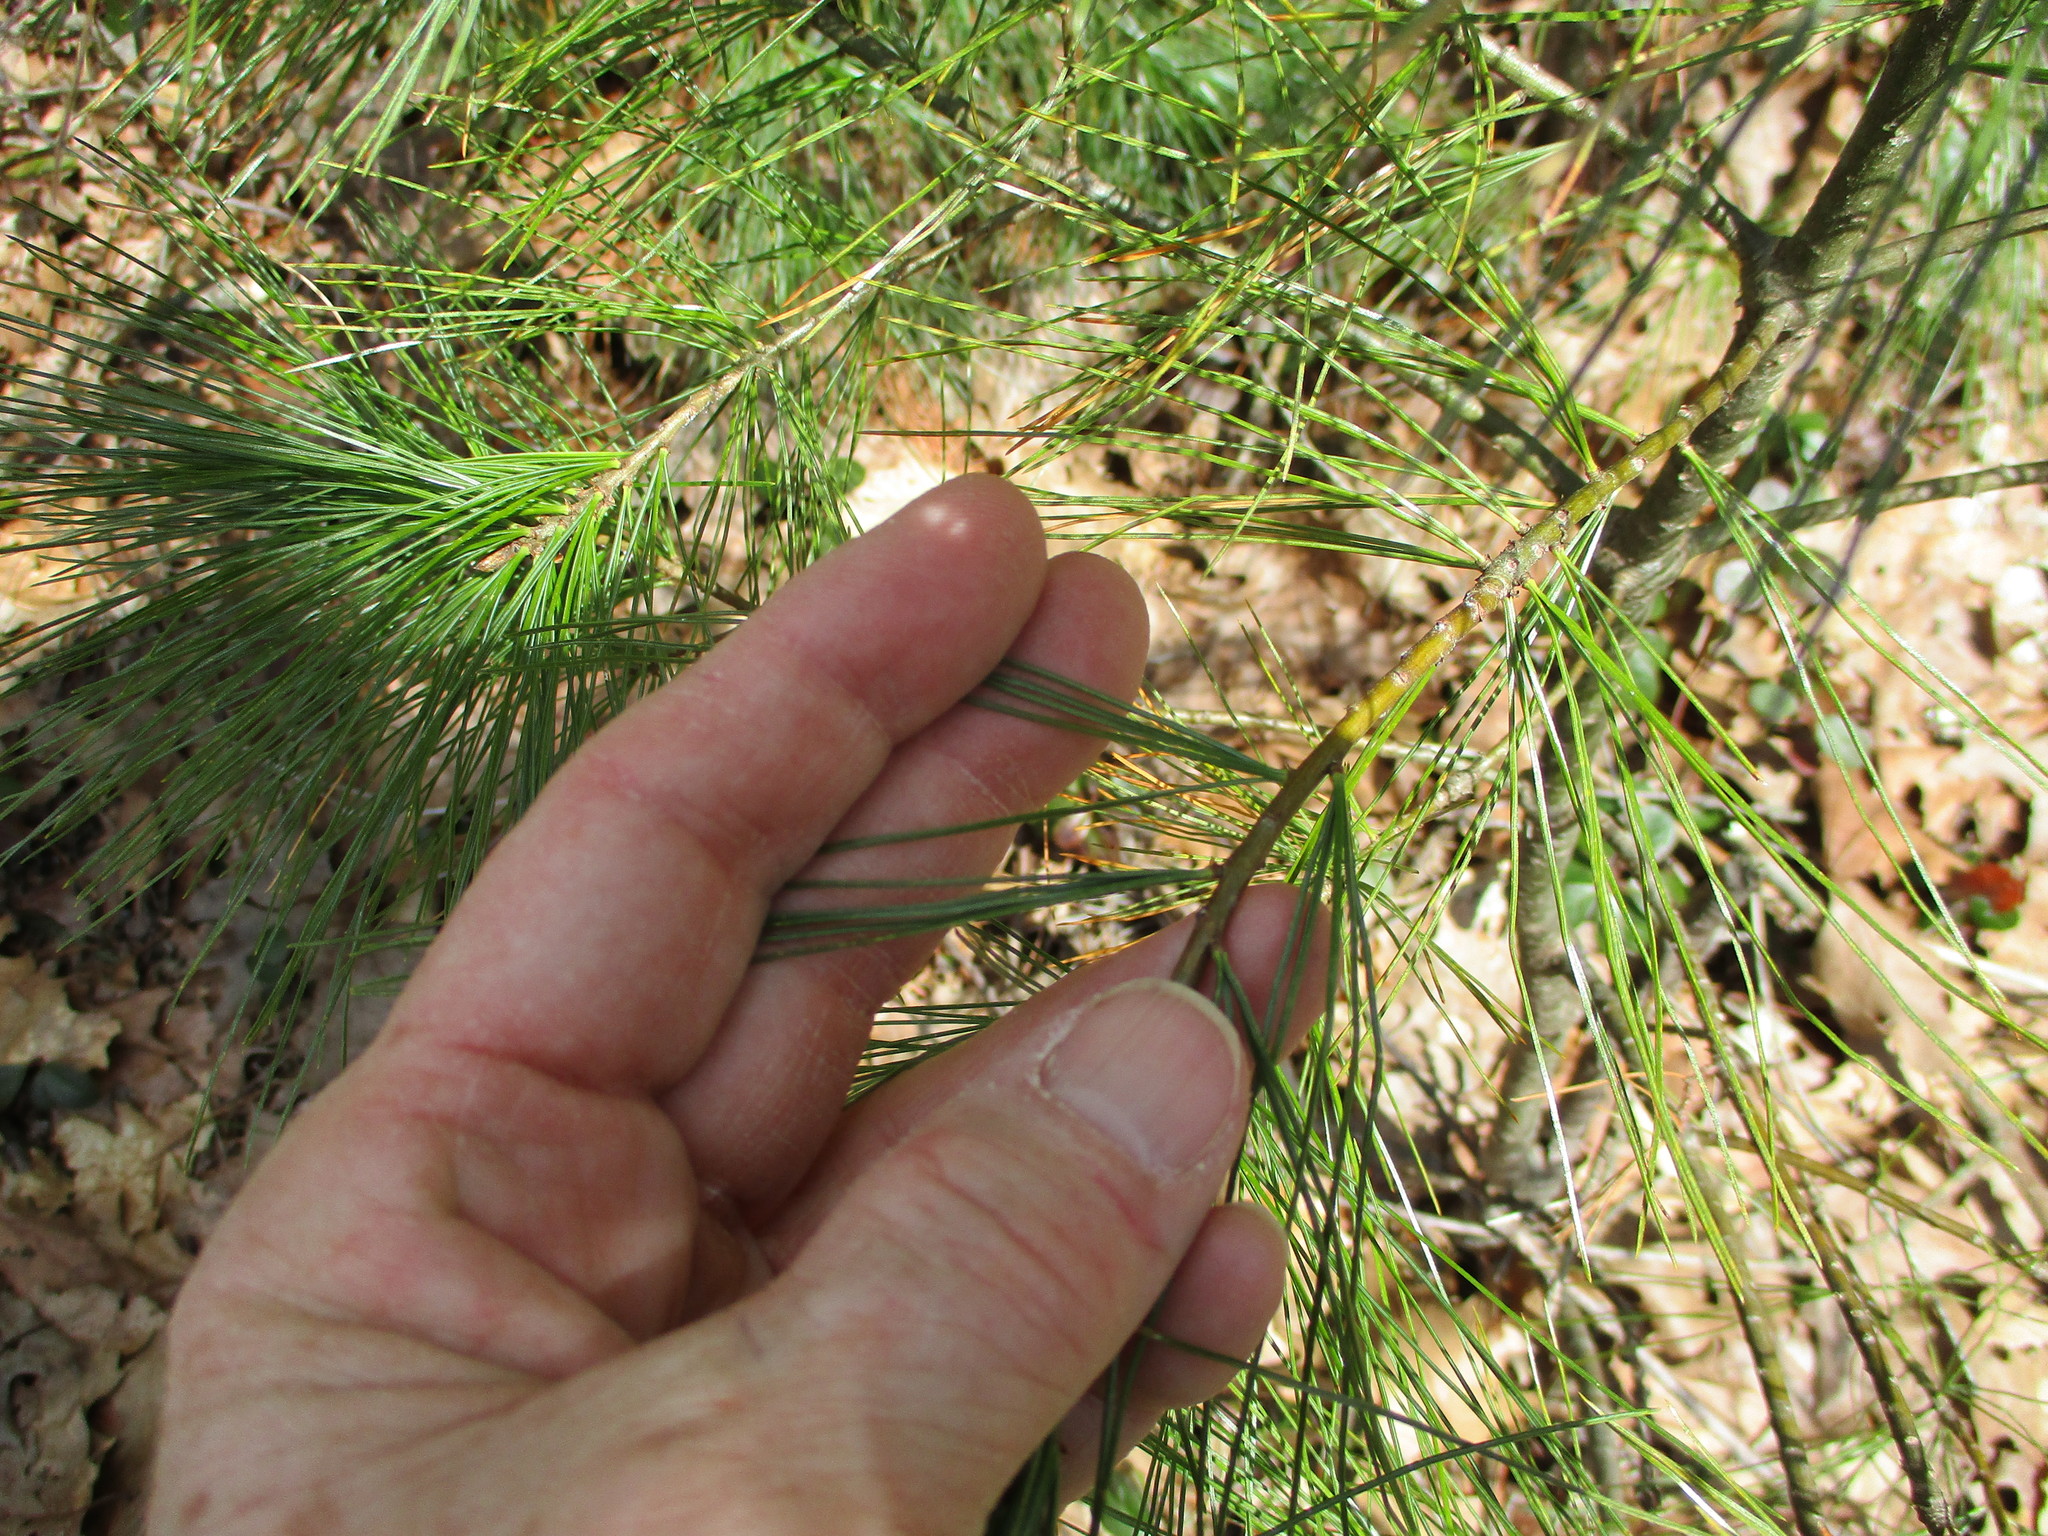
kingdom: Plantae
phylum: Tracheophyta
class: Pinopsida
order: Pinales
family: Pinaceae
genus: Pinus
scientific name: Pinus strobus
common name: Weymouth pine
